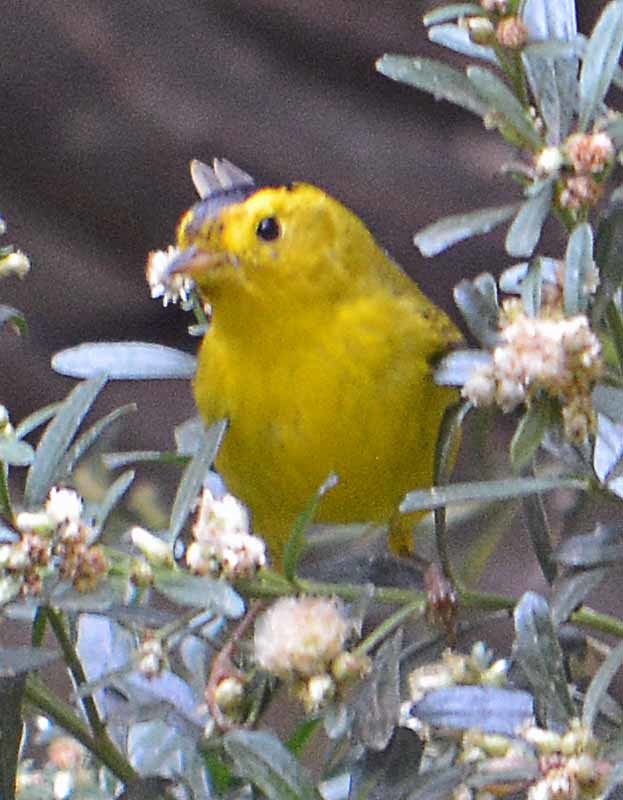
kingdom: Animalia
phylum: Chordata
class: Aves
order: Passeriformes
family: Parulidae
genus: Cardellina
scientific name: Cardellina pusilla
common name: Wilson's warbler
